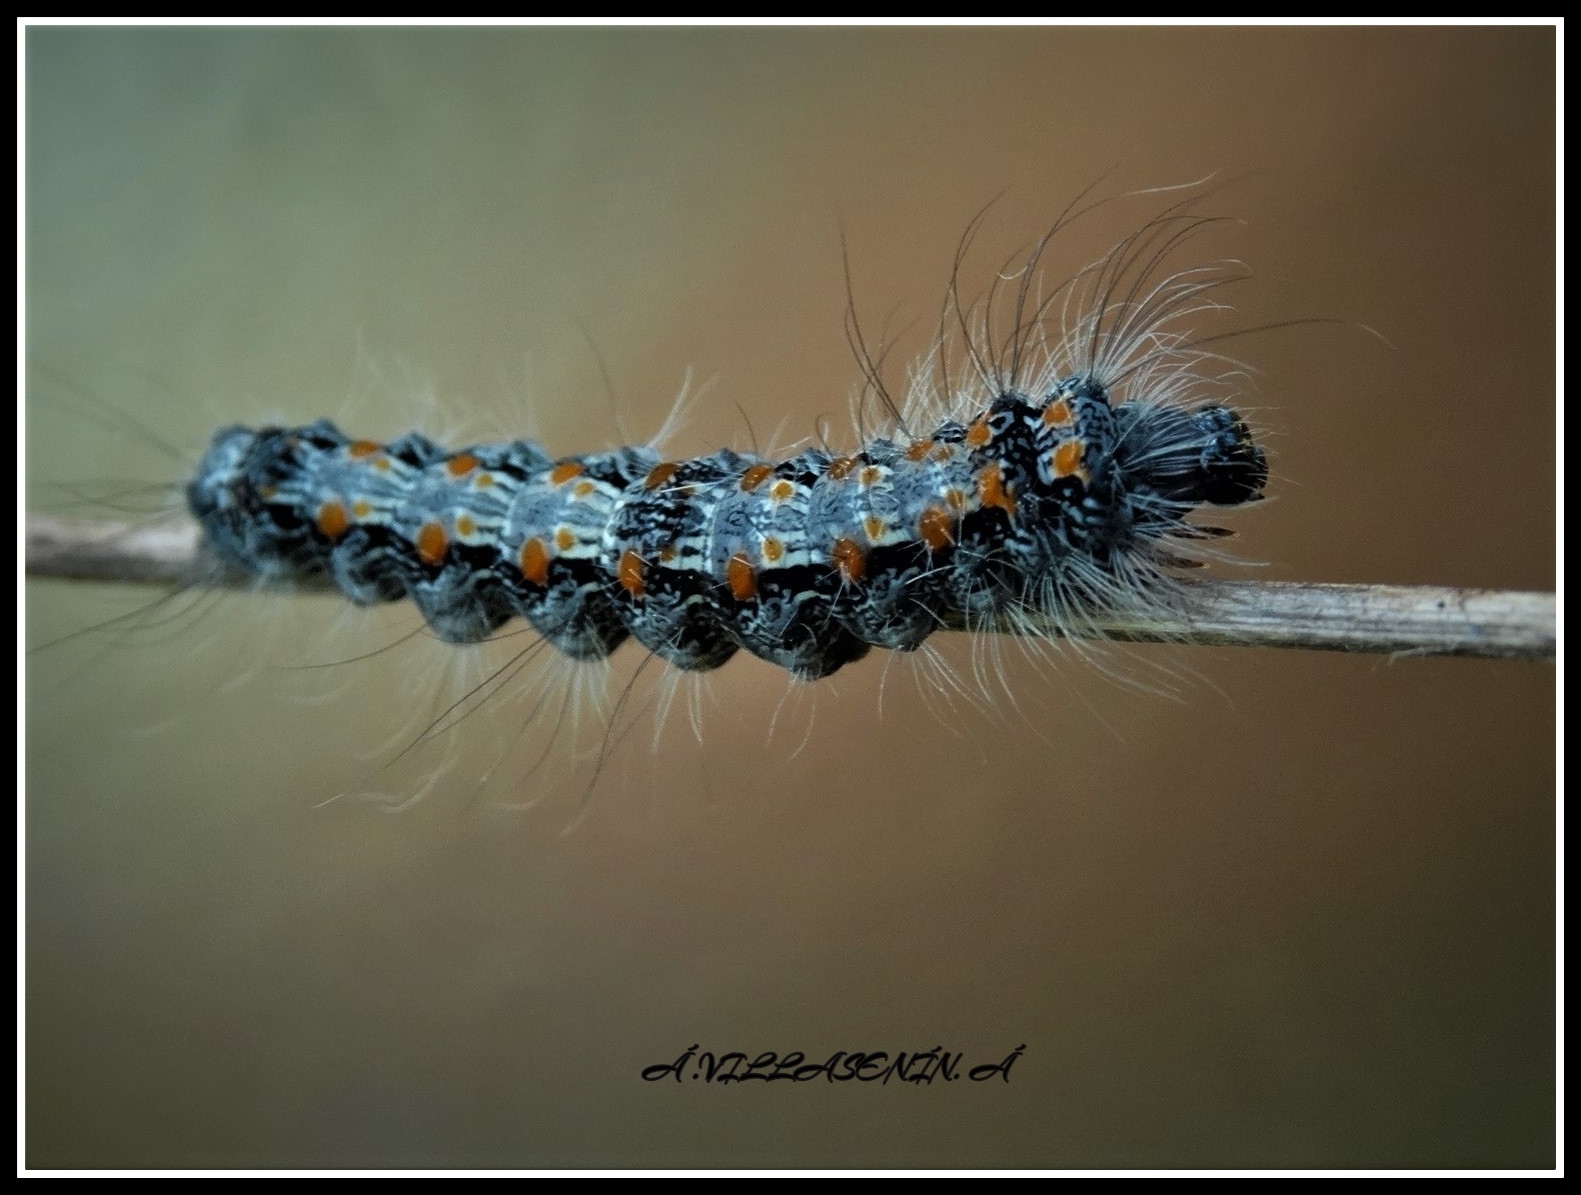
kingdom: Animalia
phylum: Arthropoda
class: Insecta
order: Lepidoptera
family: Erebidae
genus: Lithosia
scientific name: Lithosia quadra
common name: Four-spotted footman
